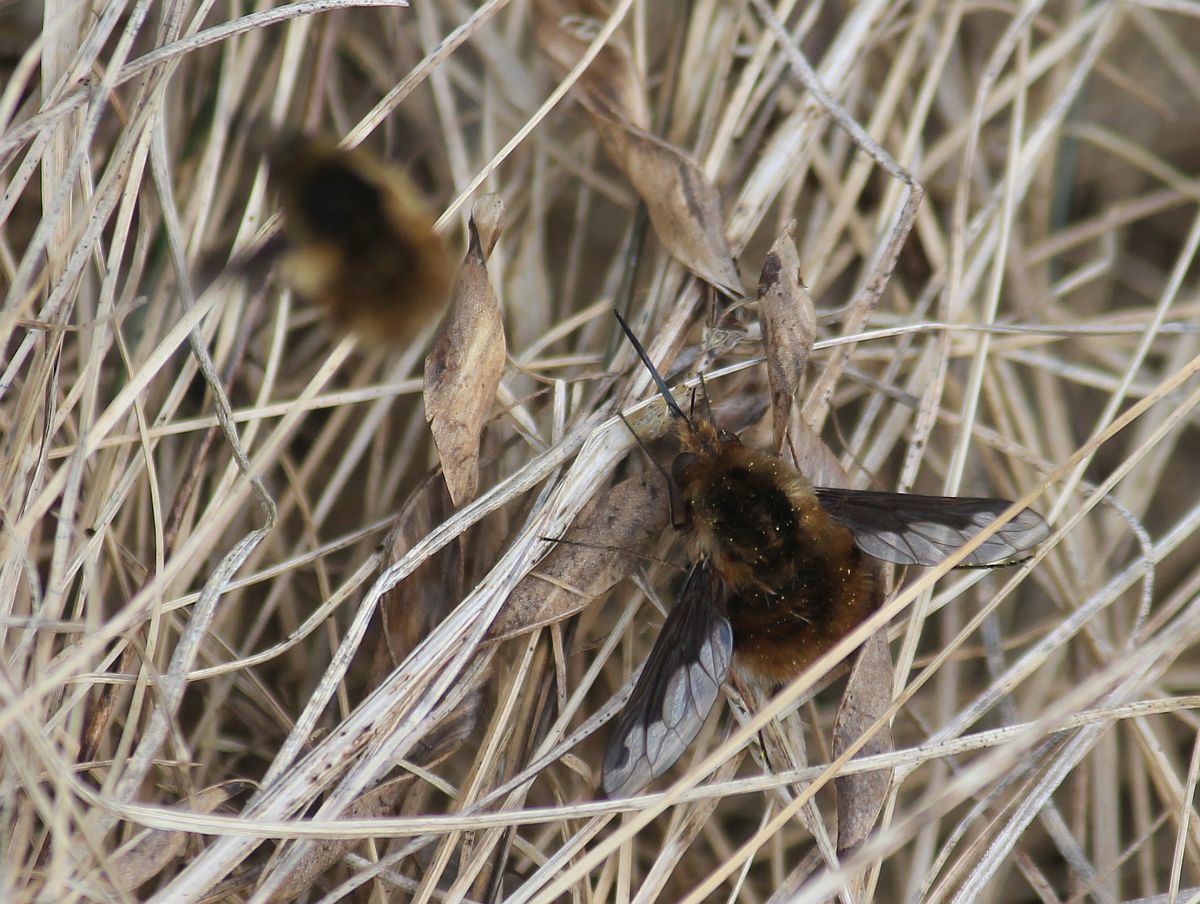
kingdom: Animalia
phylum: Arthropoda
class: Insecta
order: Diptera
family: Bombyliidae
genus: Bombylius
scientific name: Bombylius major
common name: Bee fly
